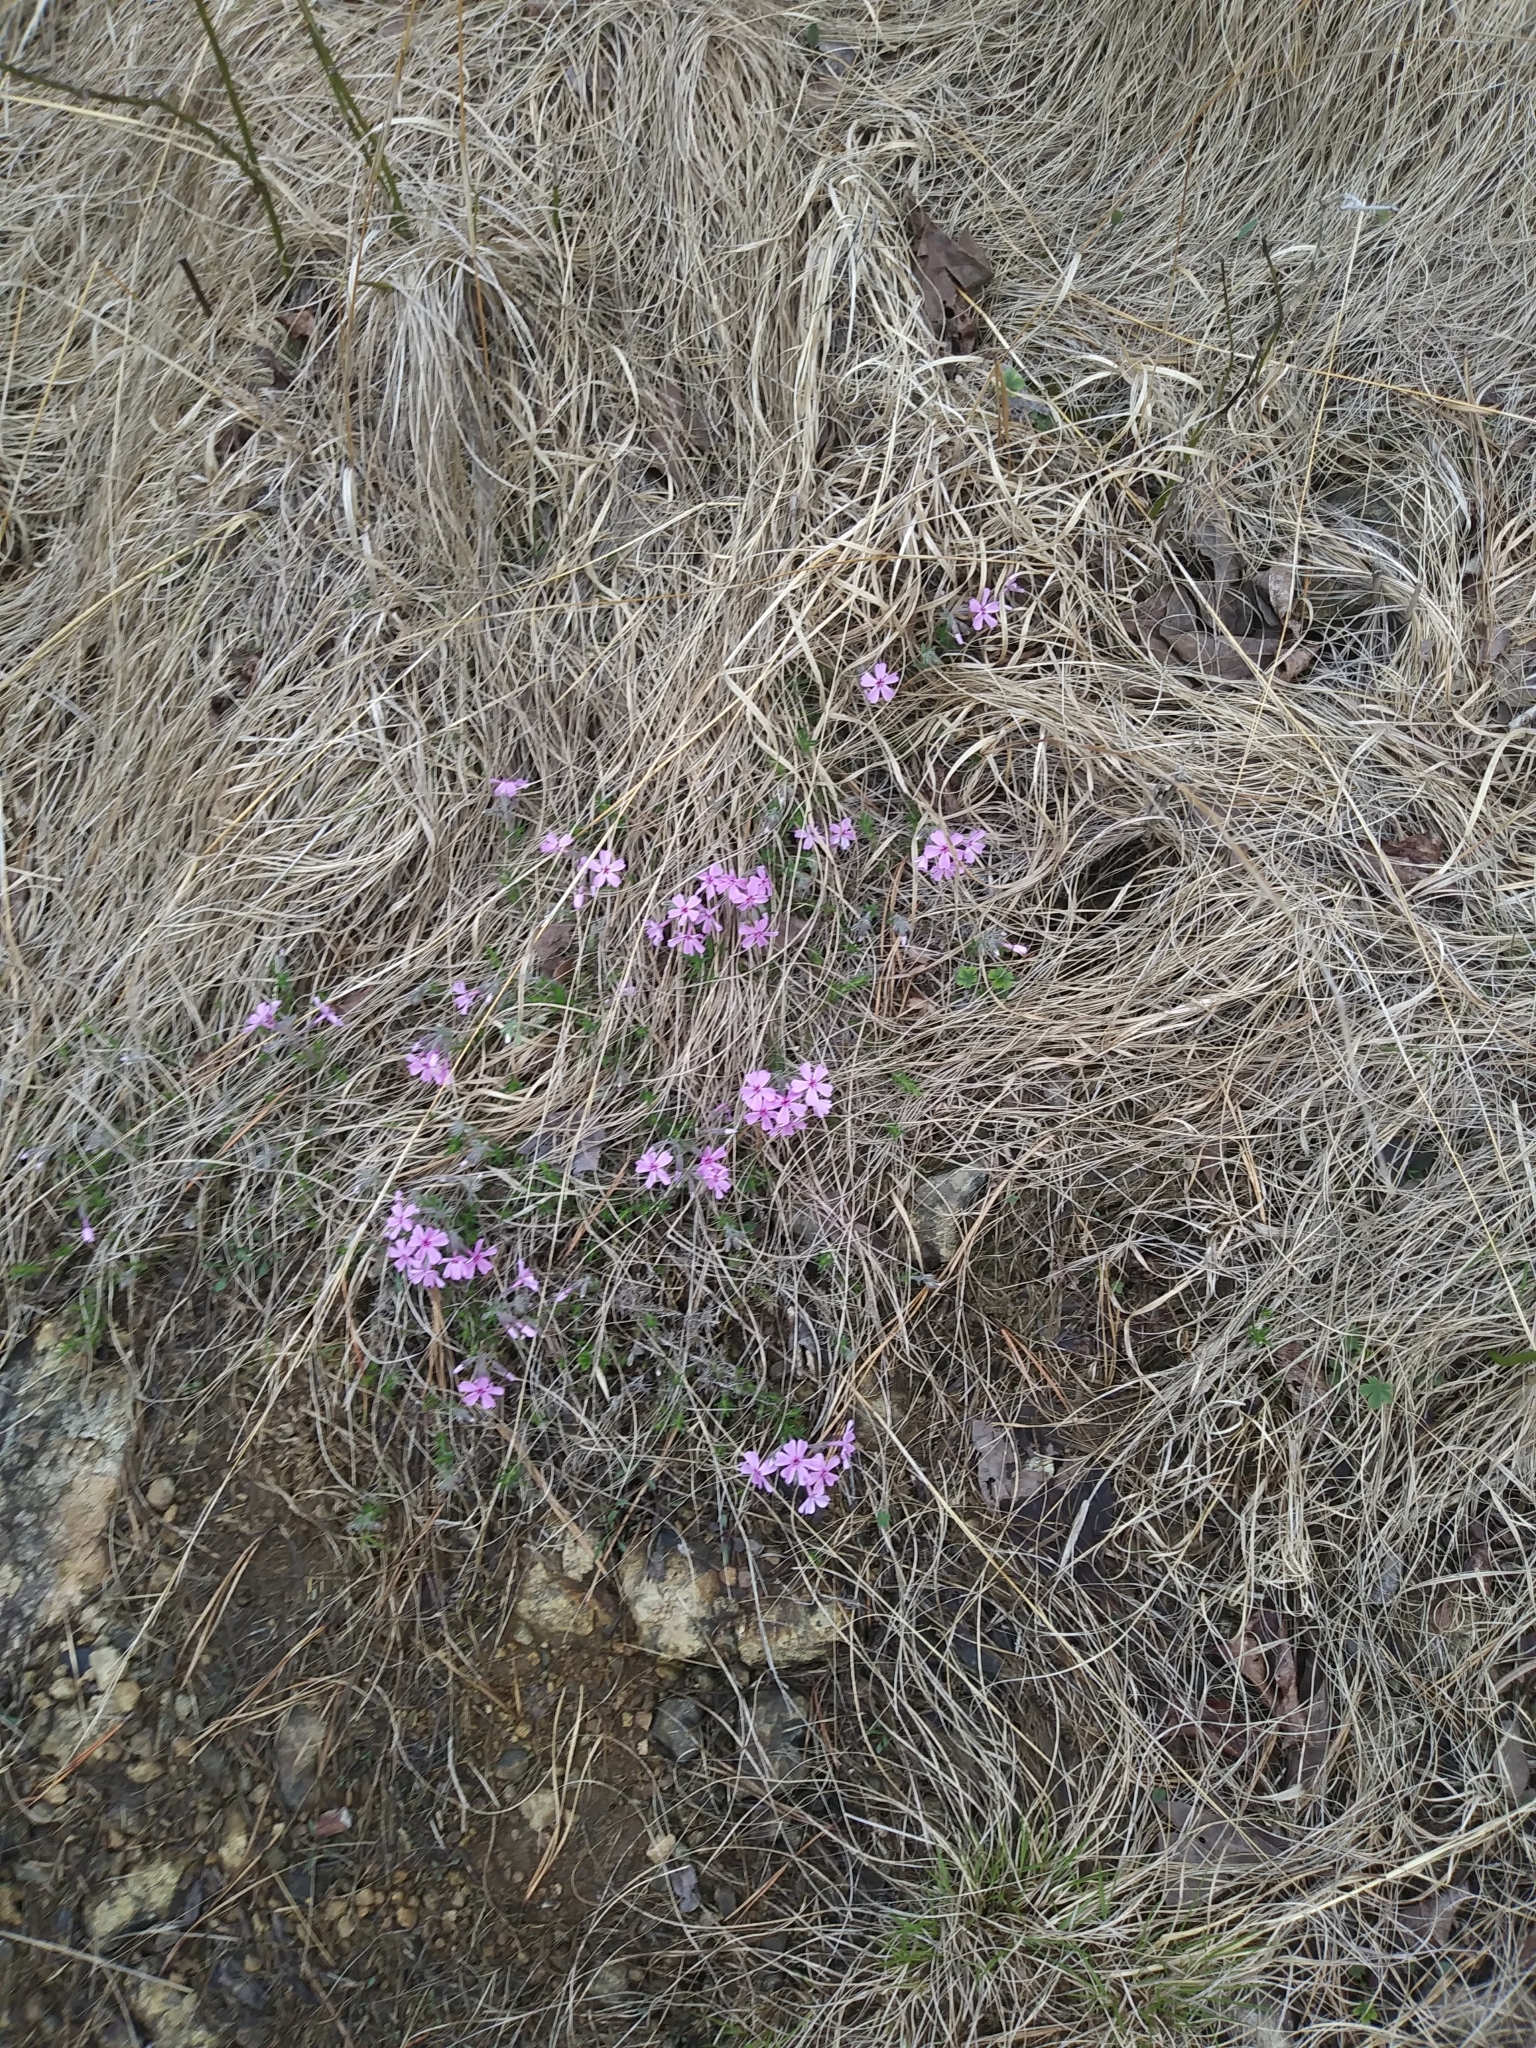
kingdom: Plantae
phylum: Tracheophyta
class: Magnoliopsida
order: Ericales
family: Polemoniaceae
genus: Phlox
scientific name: Phlox subulata
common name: Moss phlox
